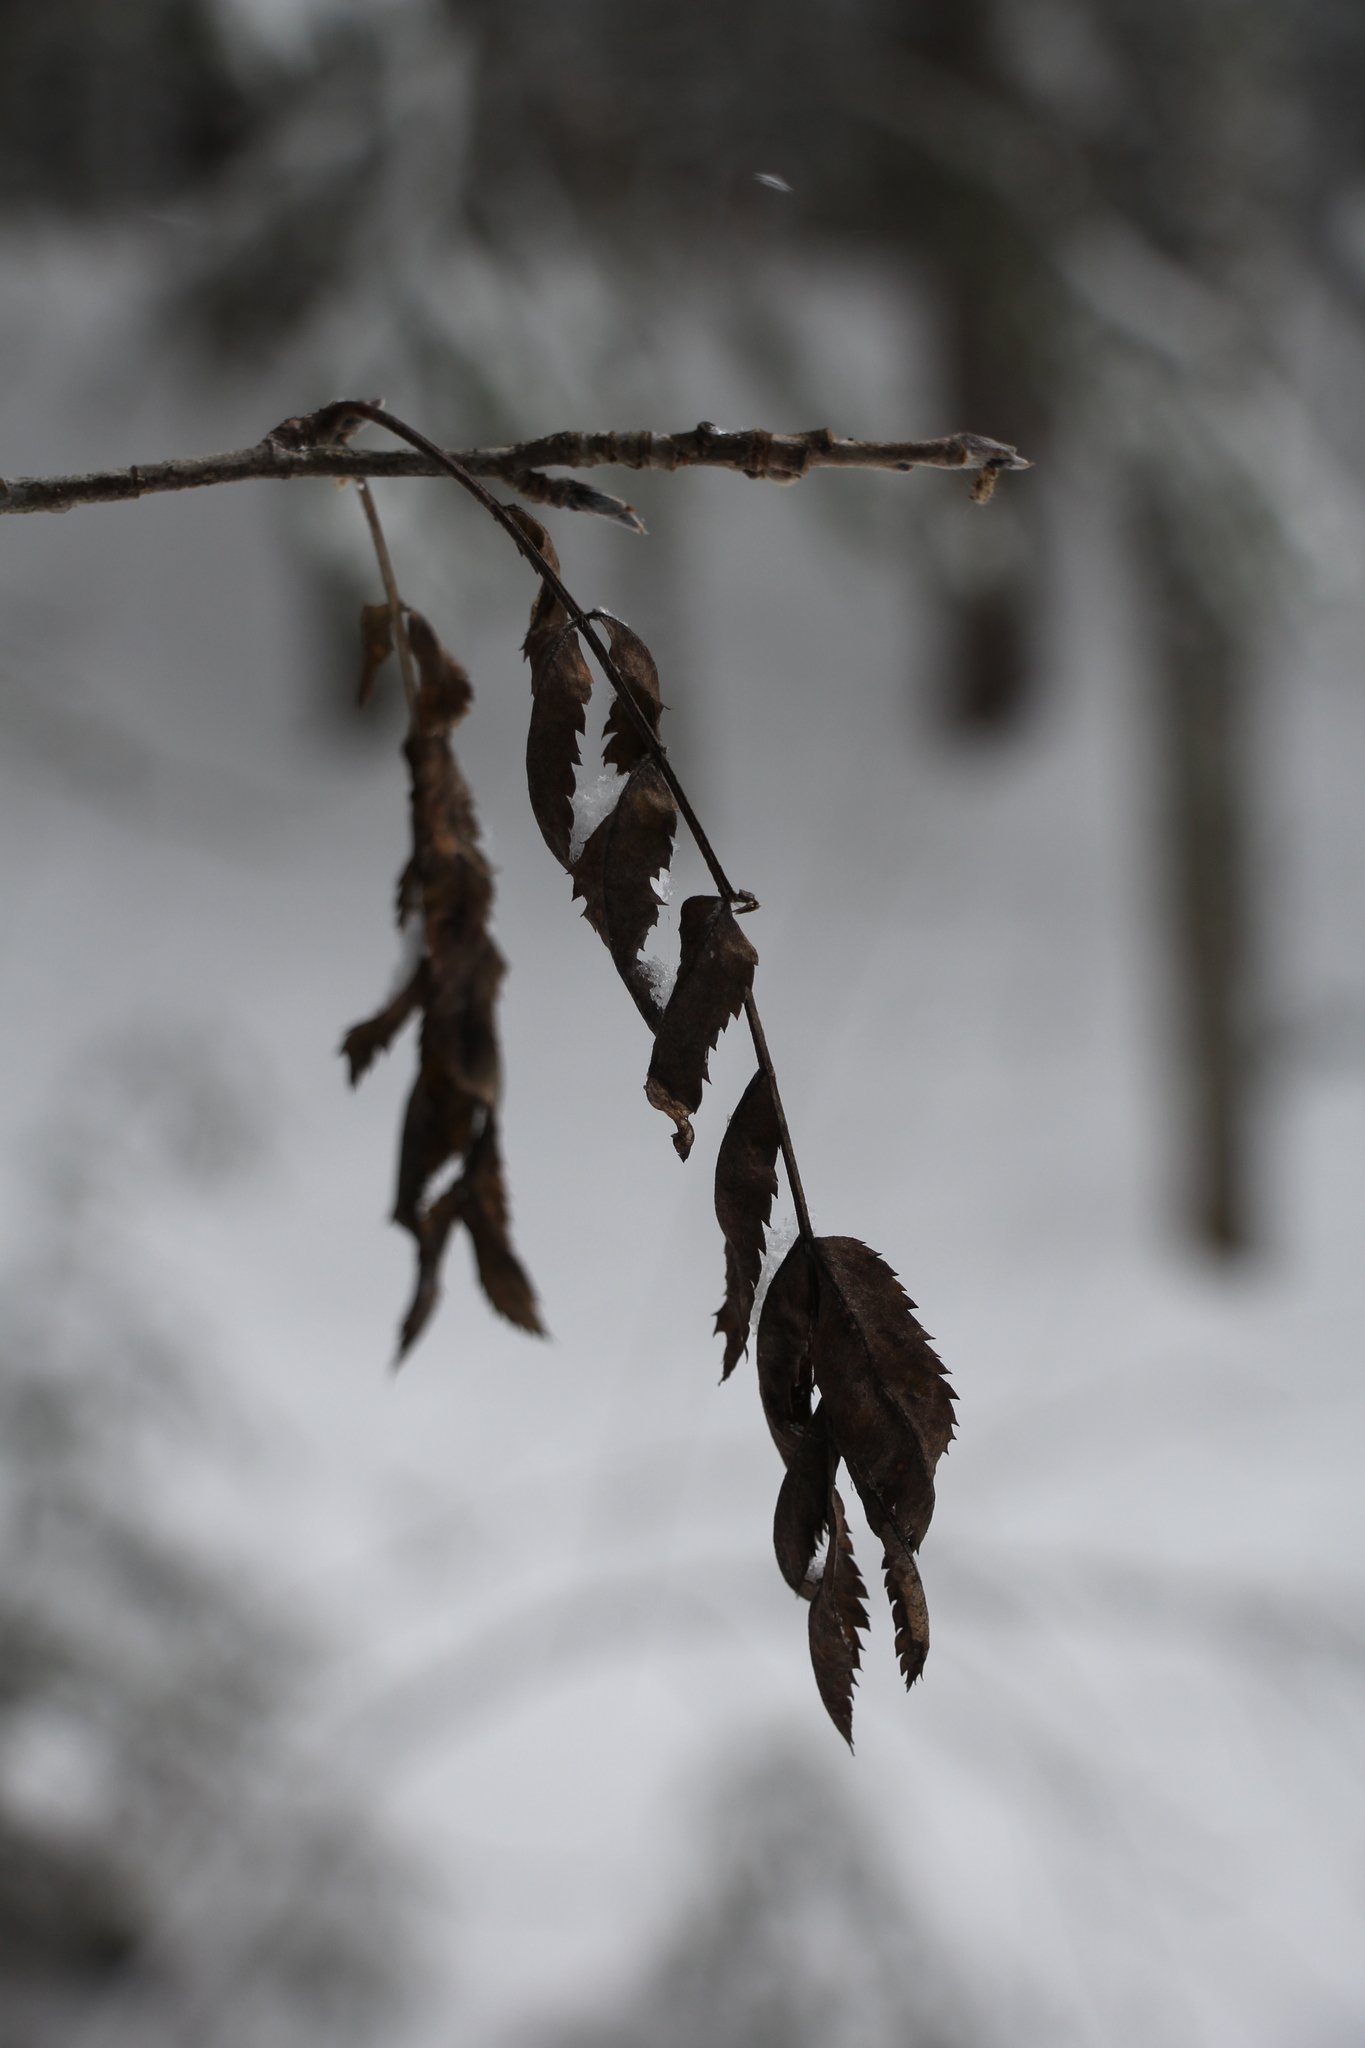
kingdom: Plantae
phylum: Tracheophyta
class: Magnoliopsida
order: Rosales
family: Rosaceae
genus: Sorbus
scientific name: Sorbus aucuparia
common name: Rowan
